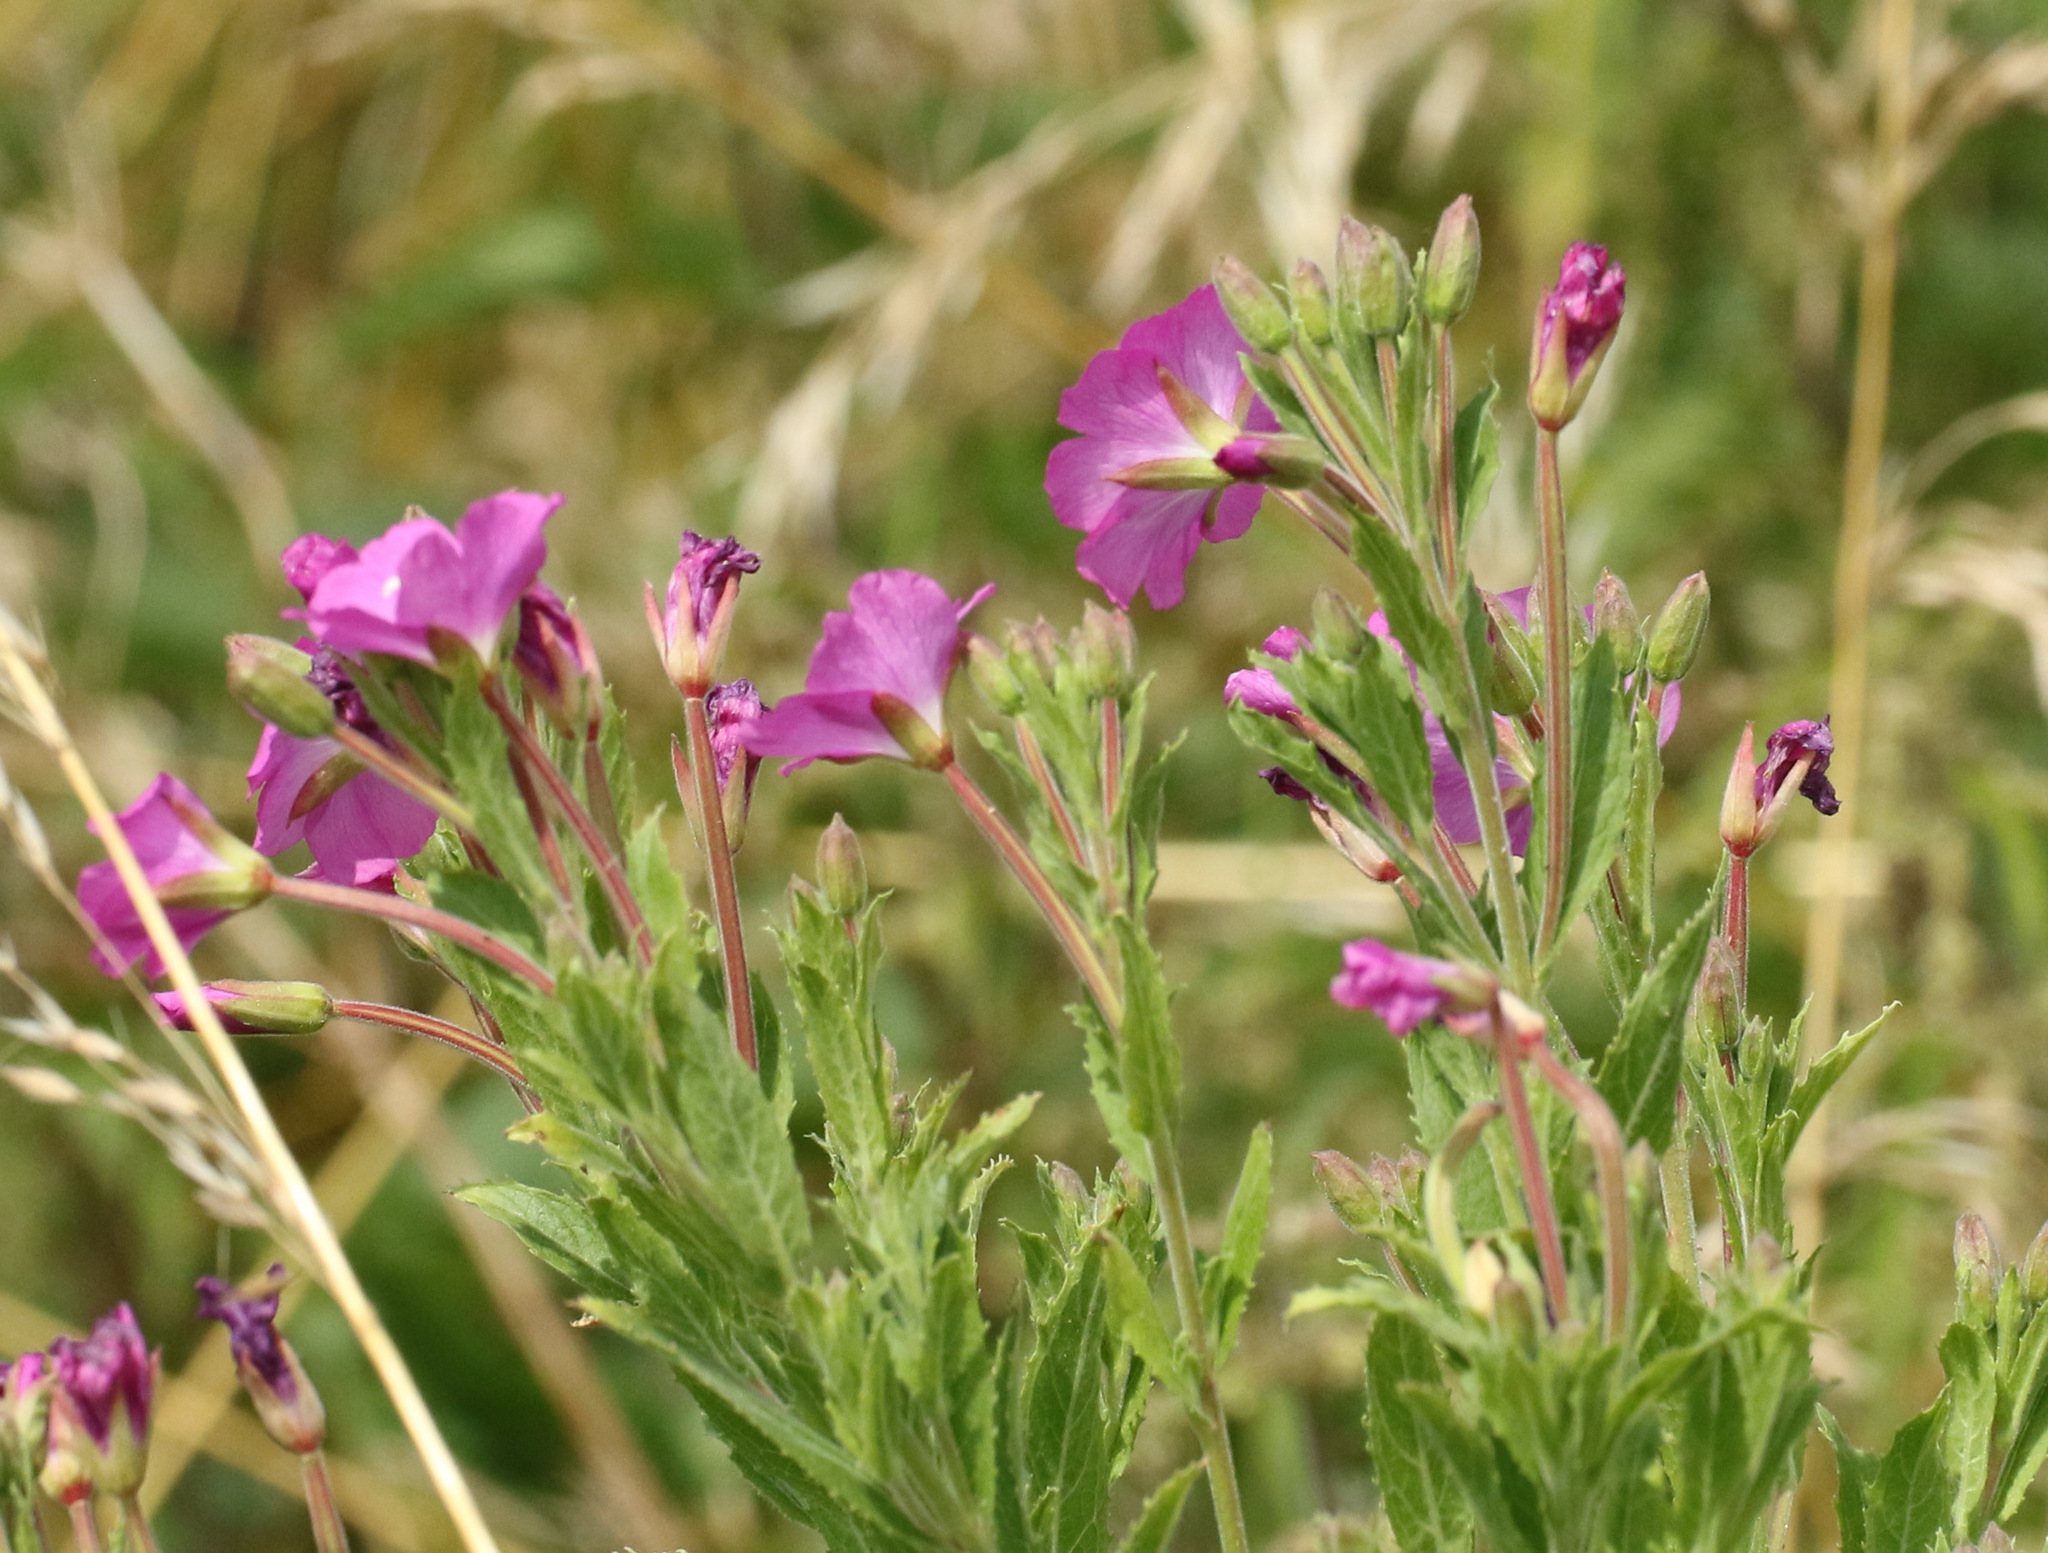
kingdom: Plantae
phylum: Tracheophyta
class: Magnoliopsida
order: Myrtales
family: Onagraceae
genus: Epilobium
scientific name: Epilobium hirsutum
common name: Great willowherb
